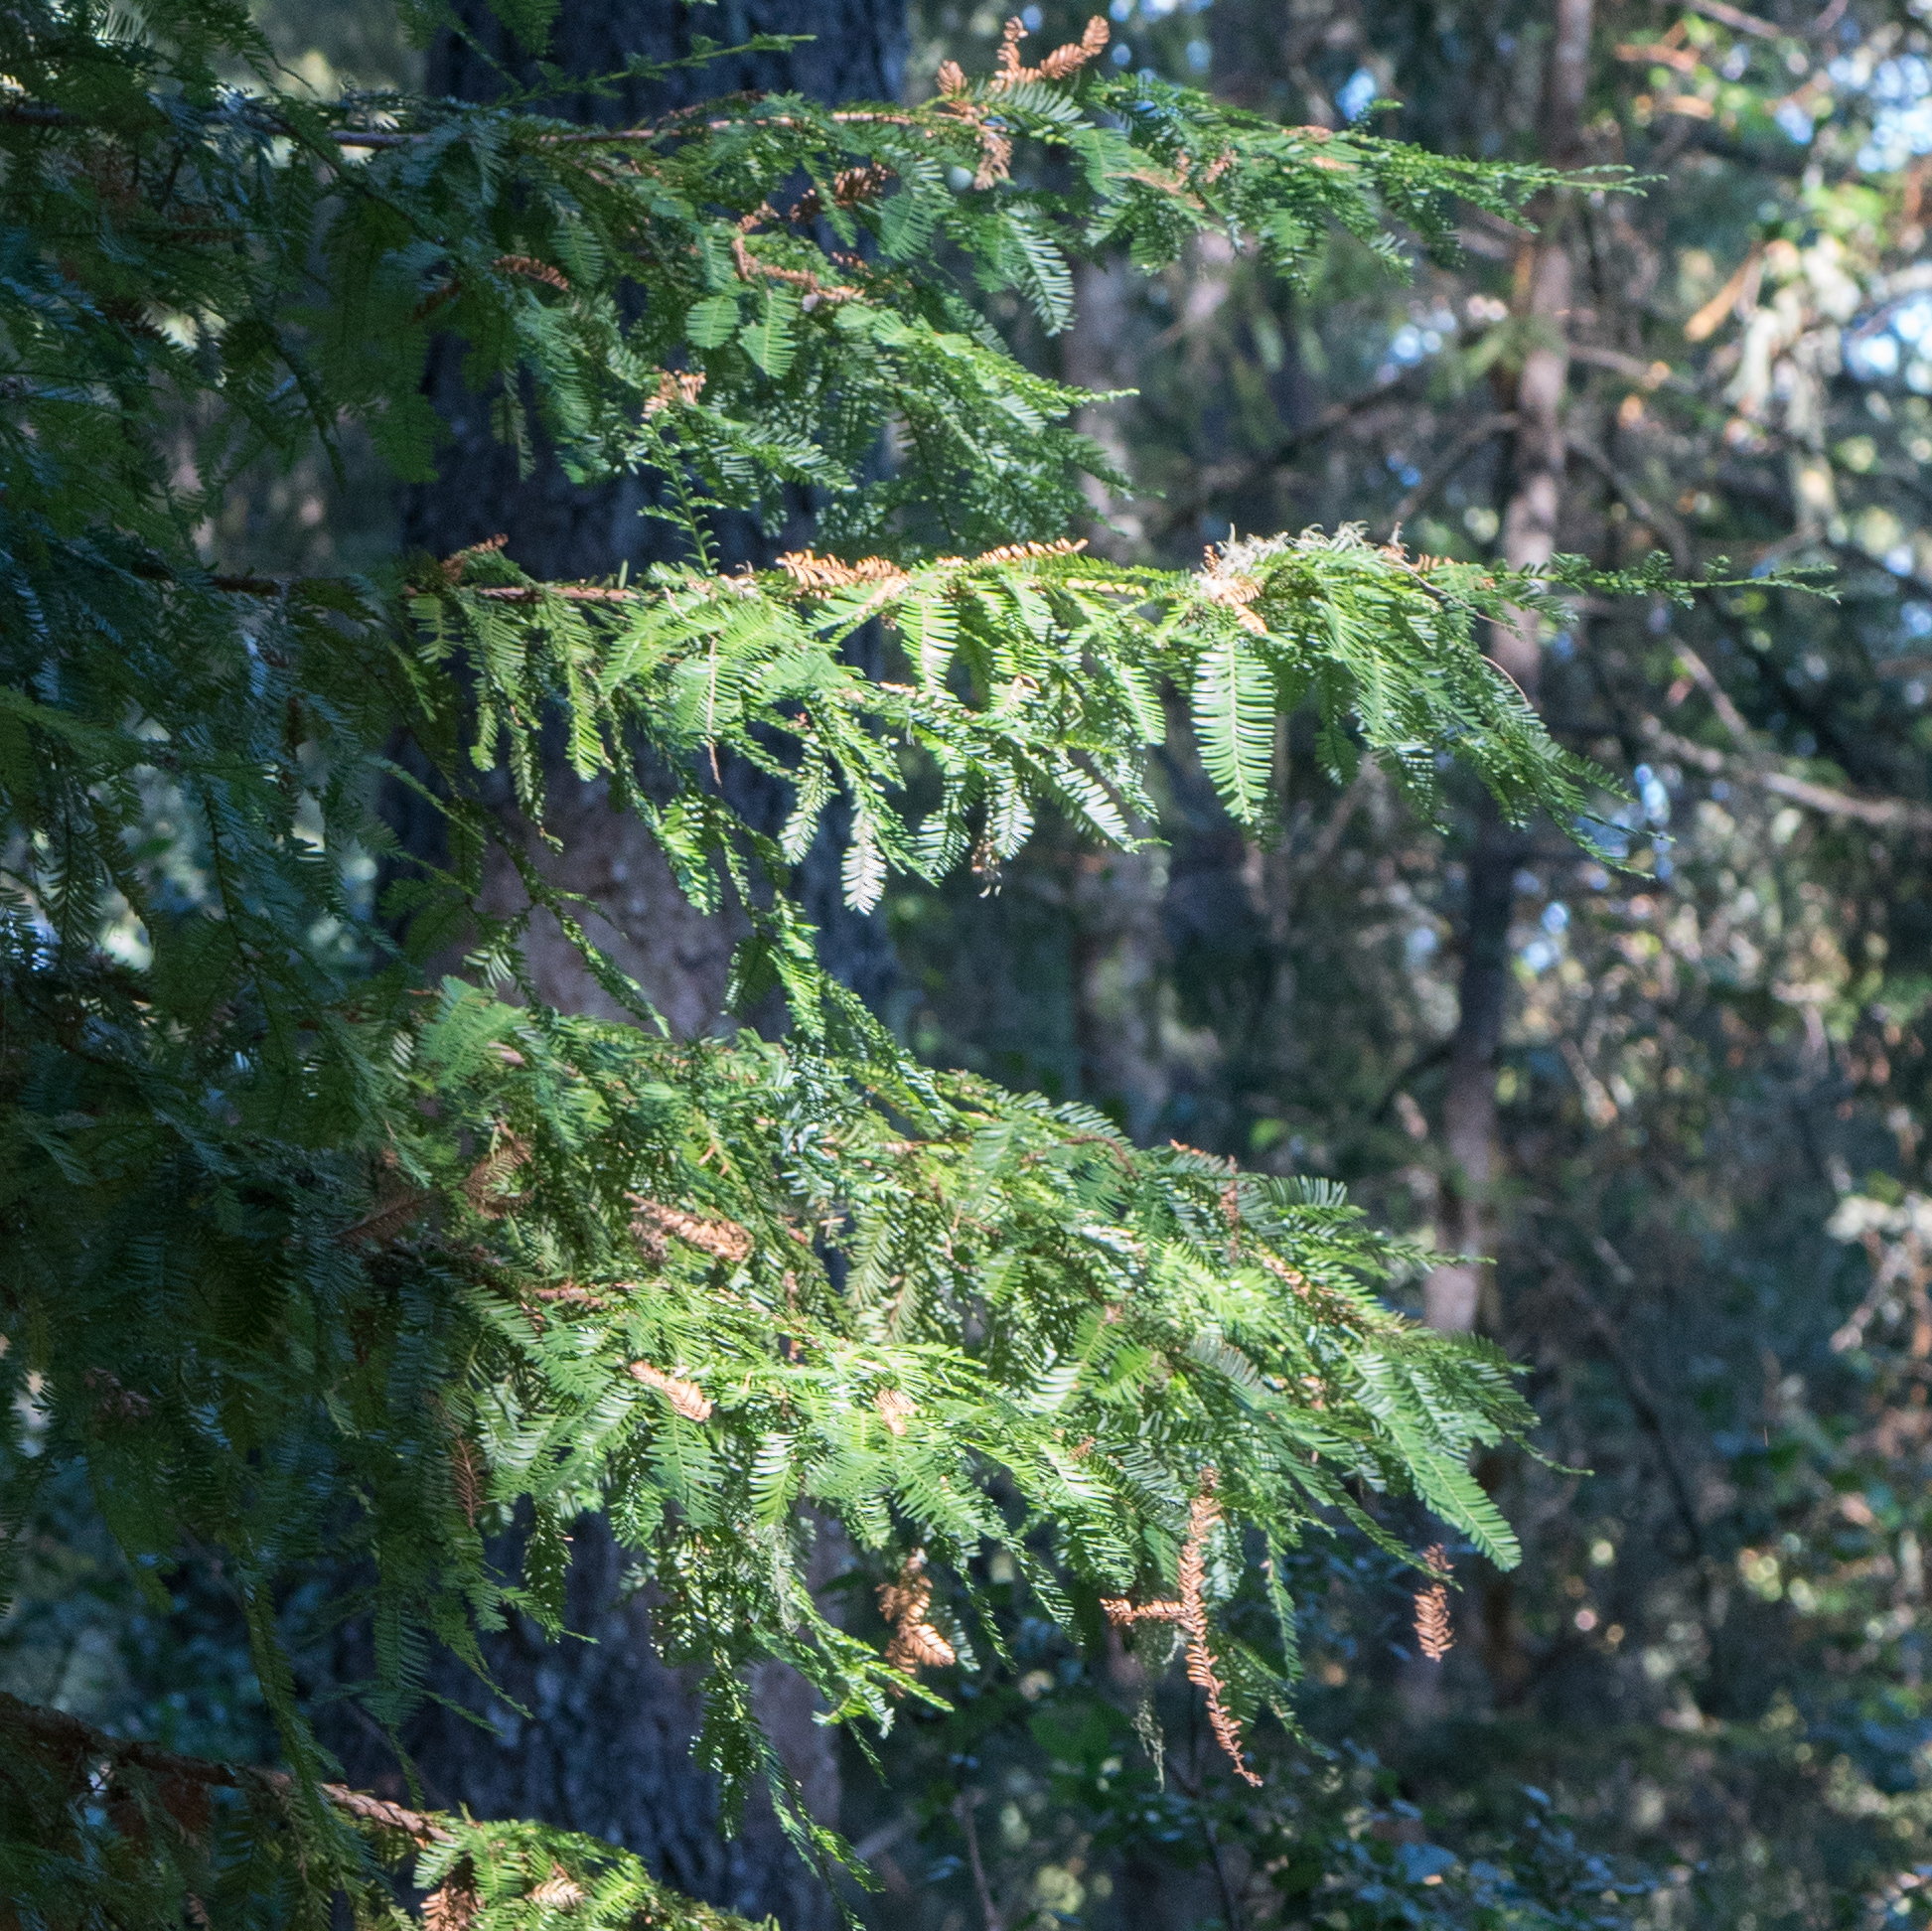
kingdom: Plantae
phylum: Tracheophyta
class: Pinopsida
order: Pinales
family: Cupressaceae
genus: Sequoia
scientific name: Sequoia sempervirens
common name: Coast redwood
